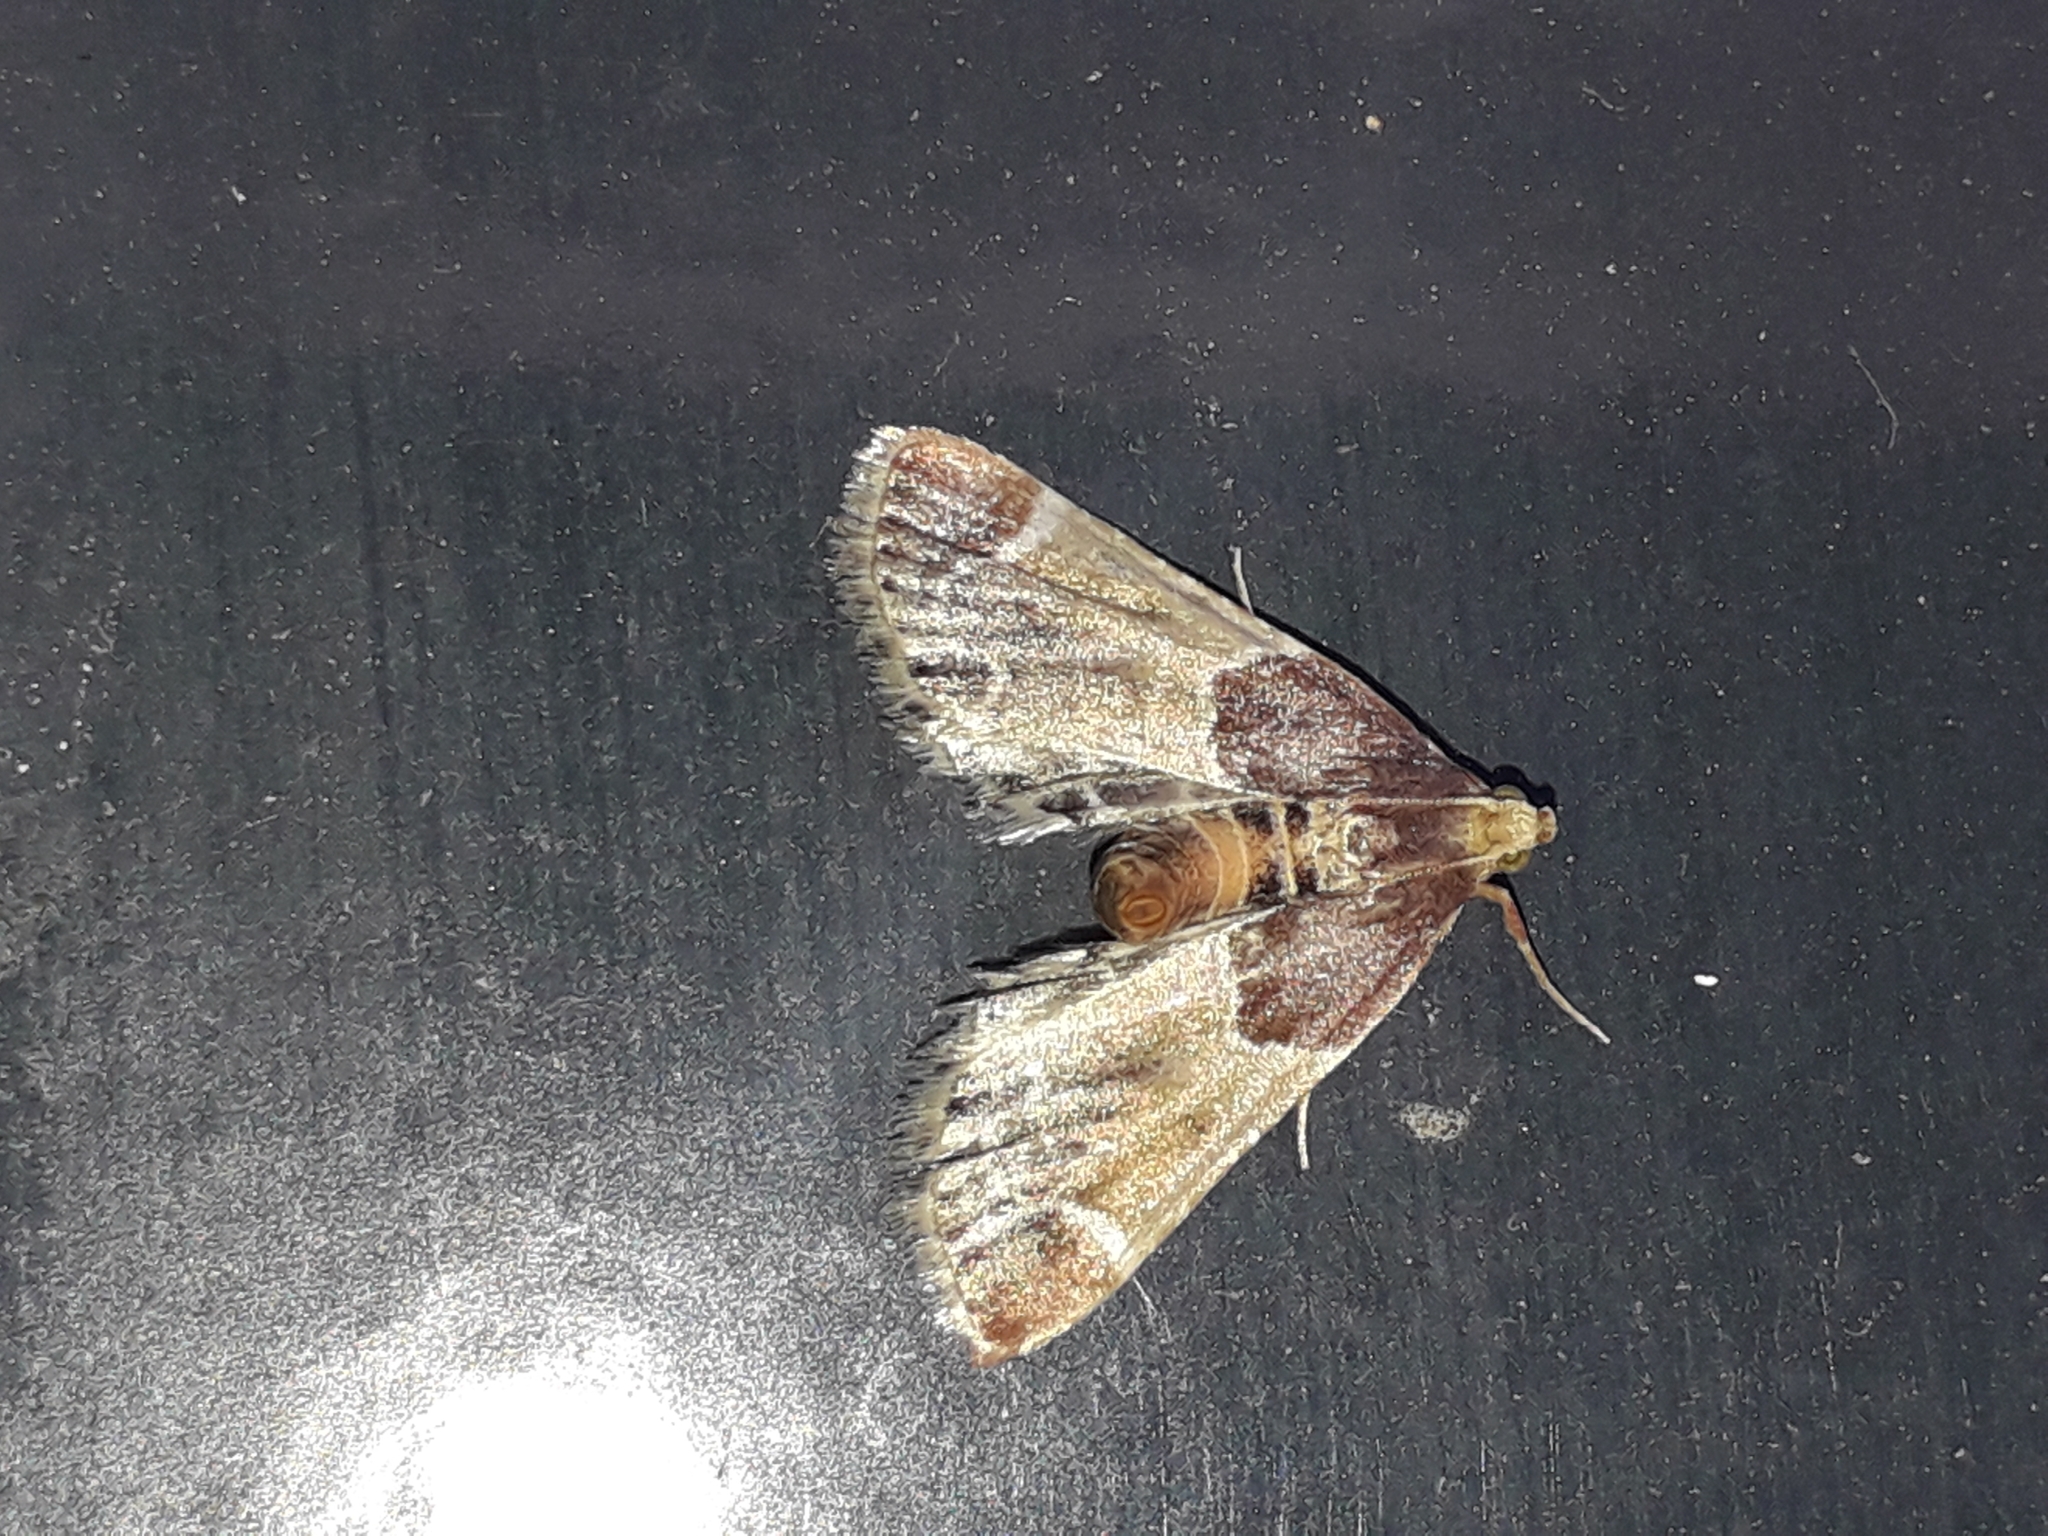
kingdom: Animalia
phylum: Arthropoda
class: Insecta
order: Lepidoptera
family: Pyralidae
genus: Pyralis
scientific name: Pyralis farinalis
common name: Meal moth
